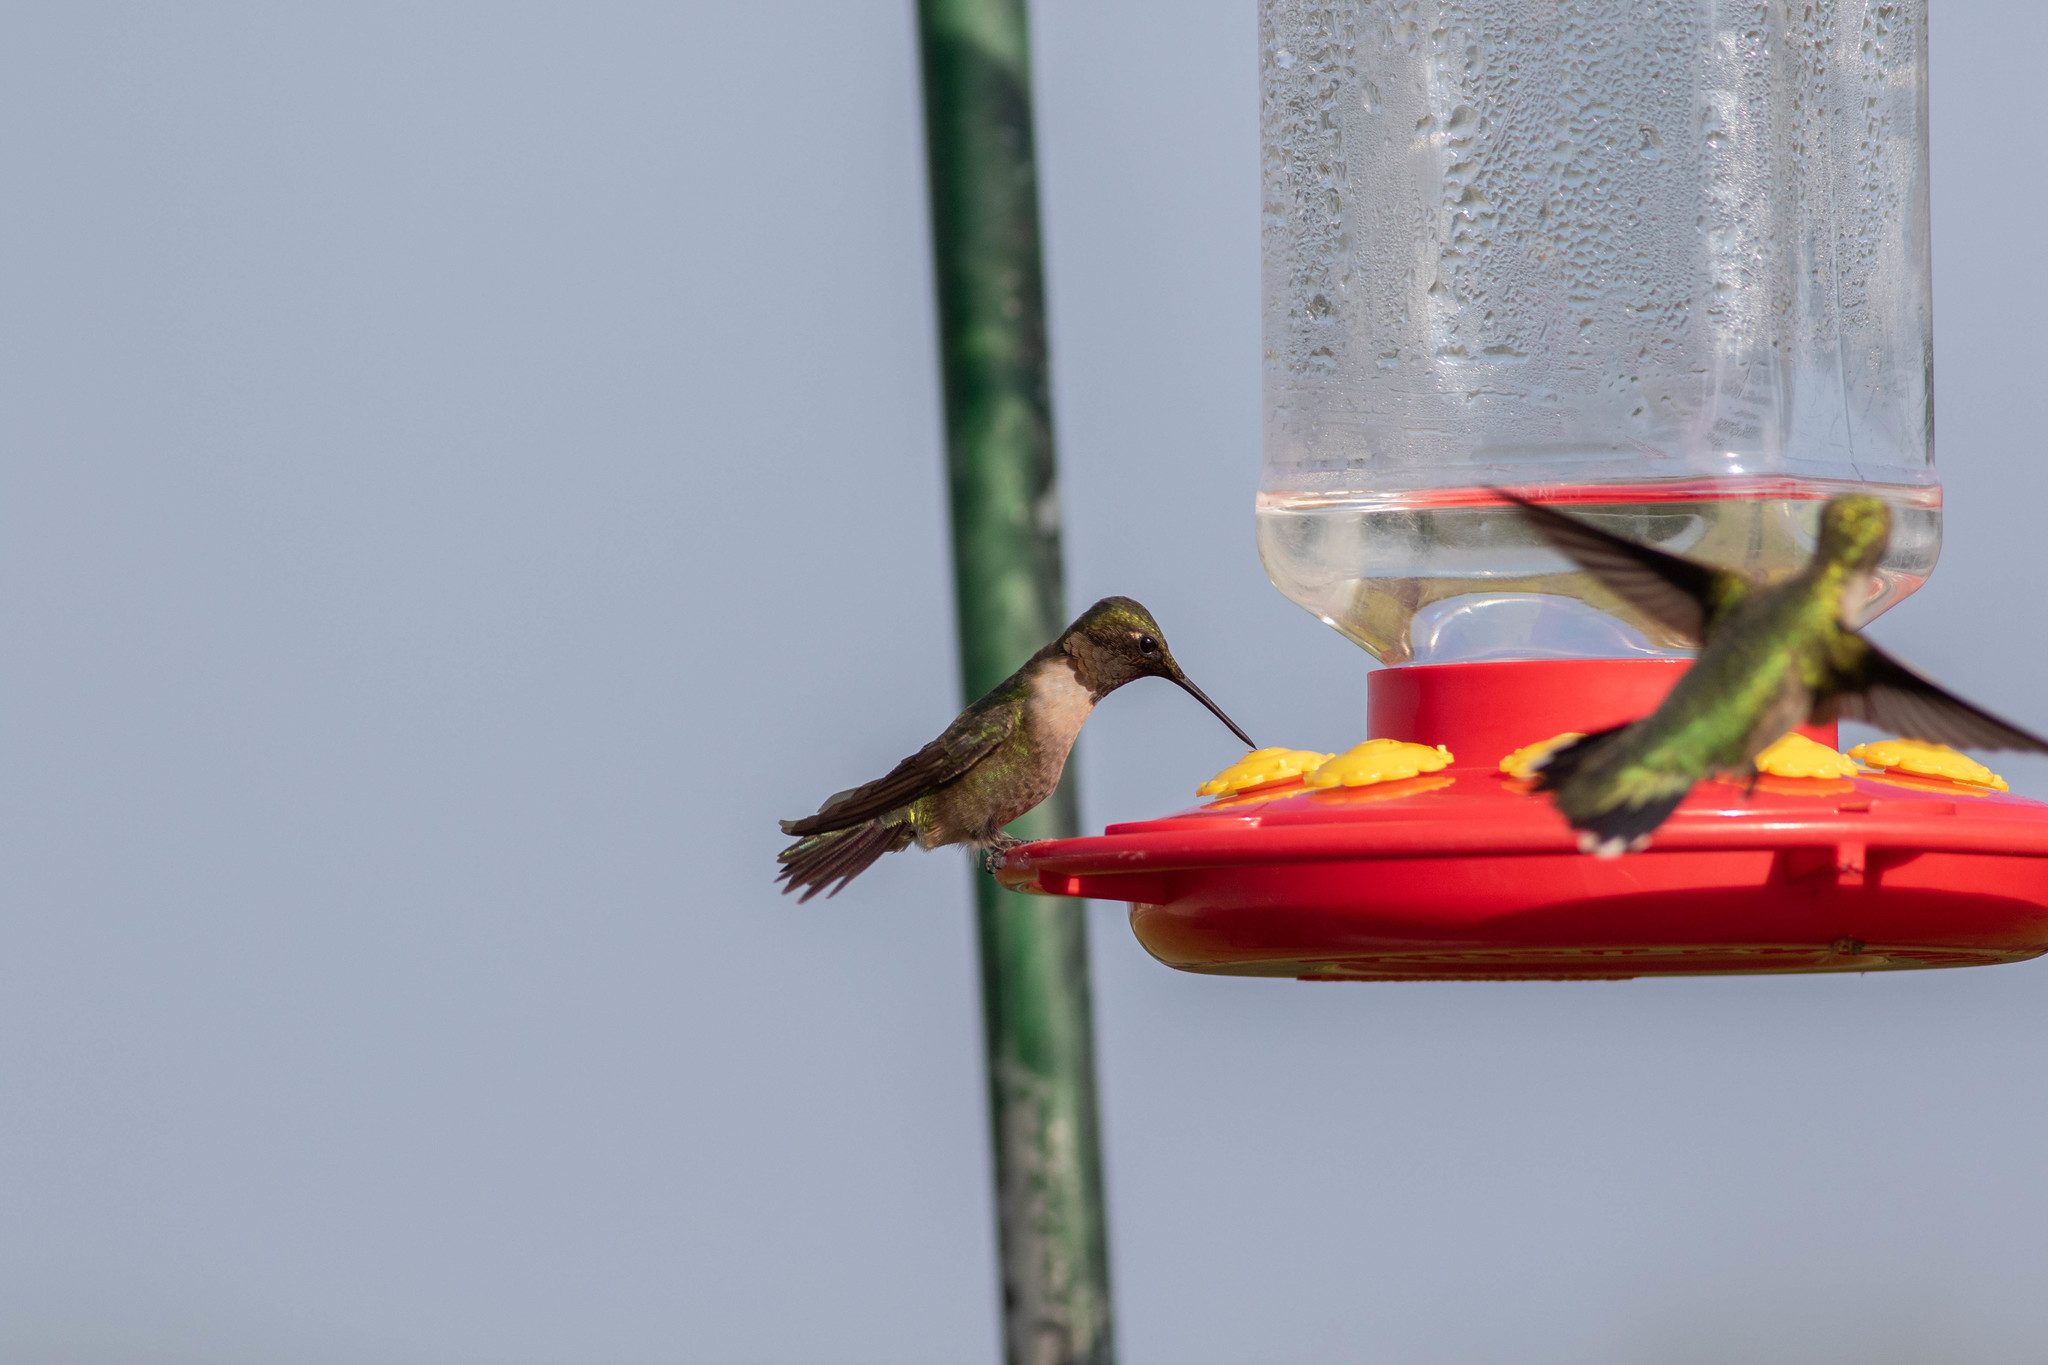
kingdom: Animalia
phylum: Chordata
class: Aves
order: Apodiformes
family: Trochilidae
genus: Archilochus
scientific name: Archilochus colubris
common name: Ruby-throated hummingbird
